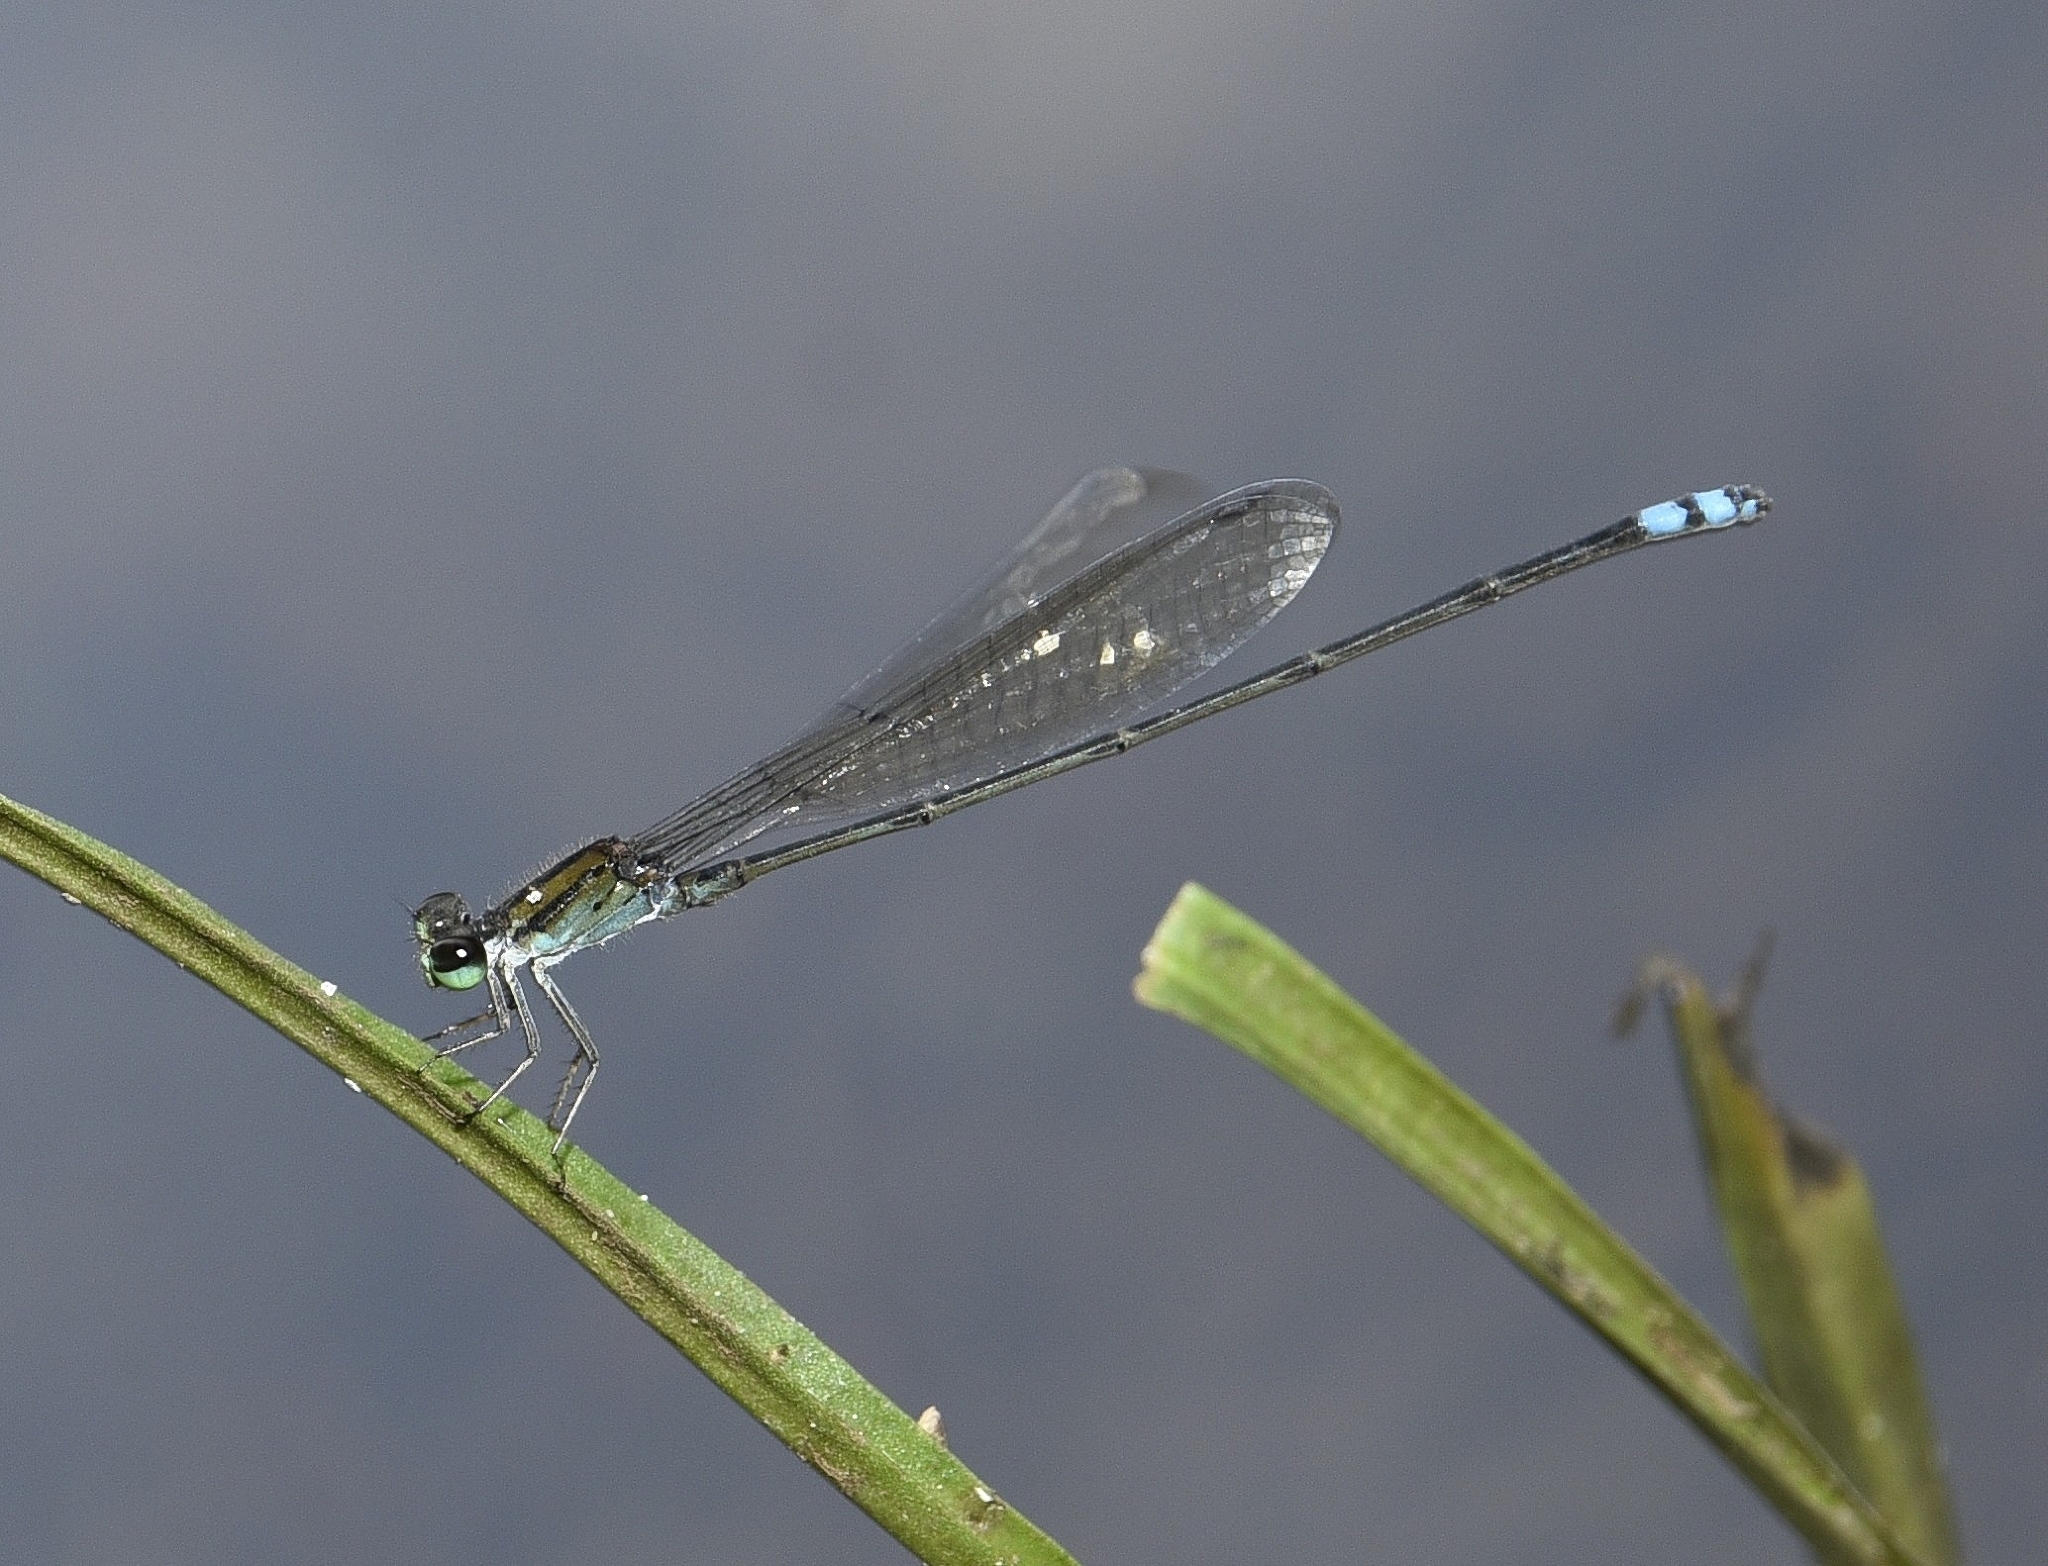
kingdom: Animalia
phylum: Arthropoda
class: Insecta
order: Odonata
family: Coenagrionidae
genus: Pseudagrion
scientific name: Pseudagrion indicum
